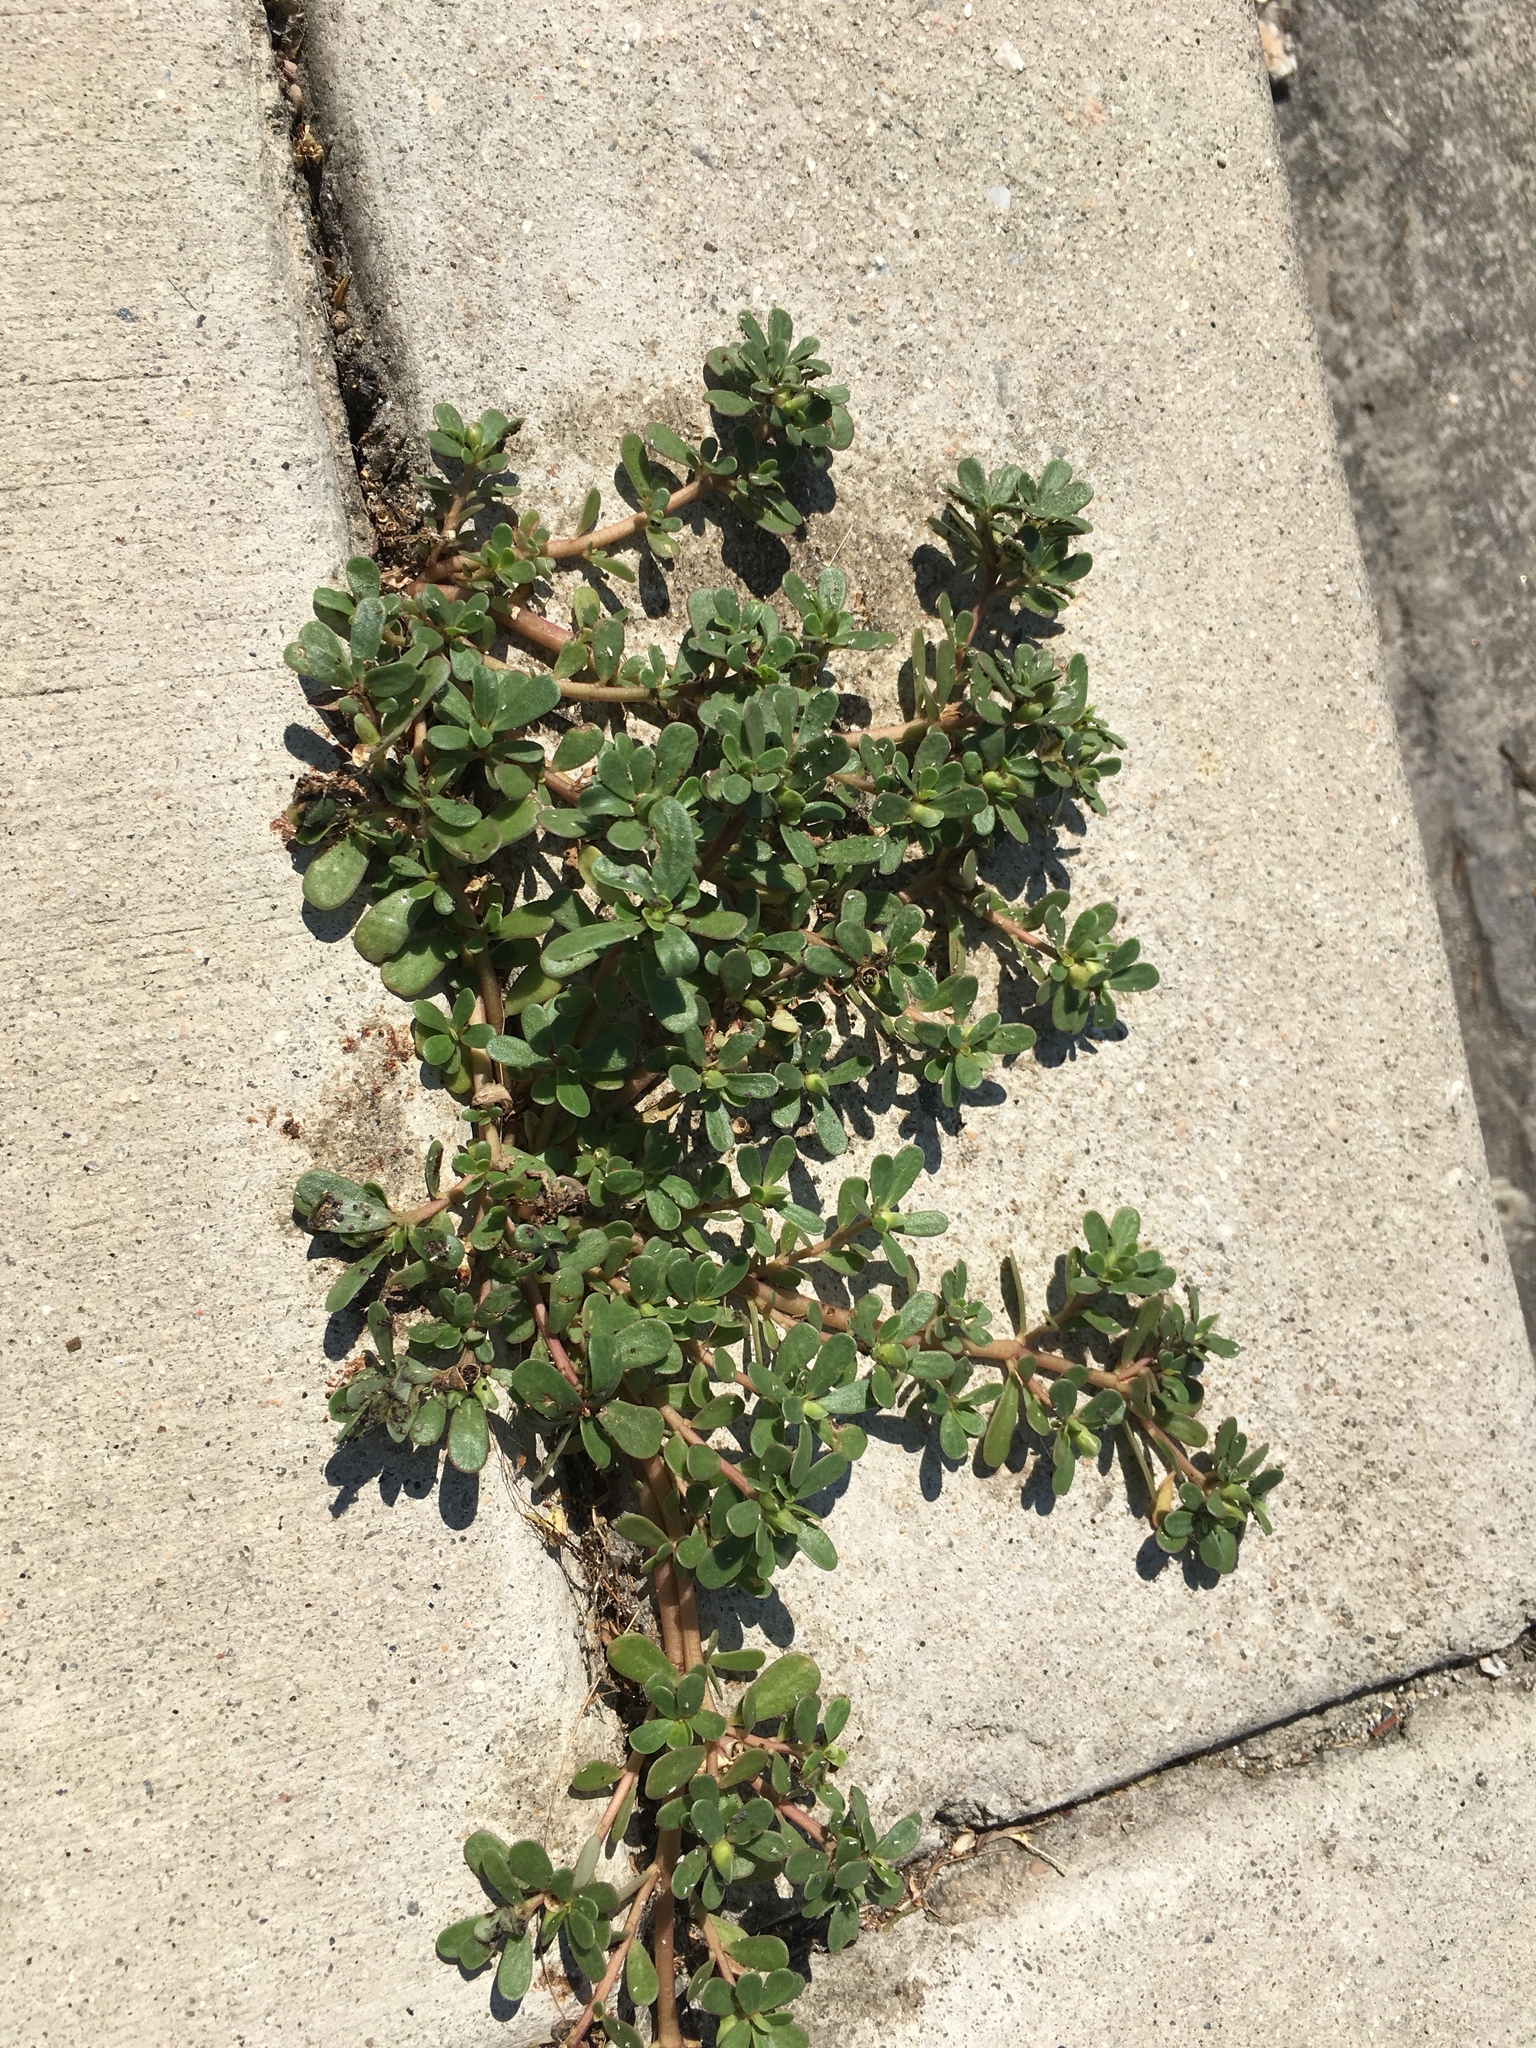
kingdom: Plantae
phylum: Tracheophyta
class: Magnoliopsida
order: Caryophyllales
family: Portulacaceae
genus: Portulaca
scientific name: Portulaca oleracea
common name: Common purslane
